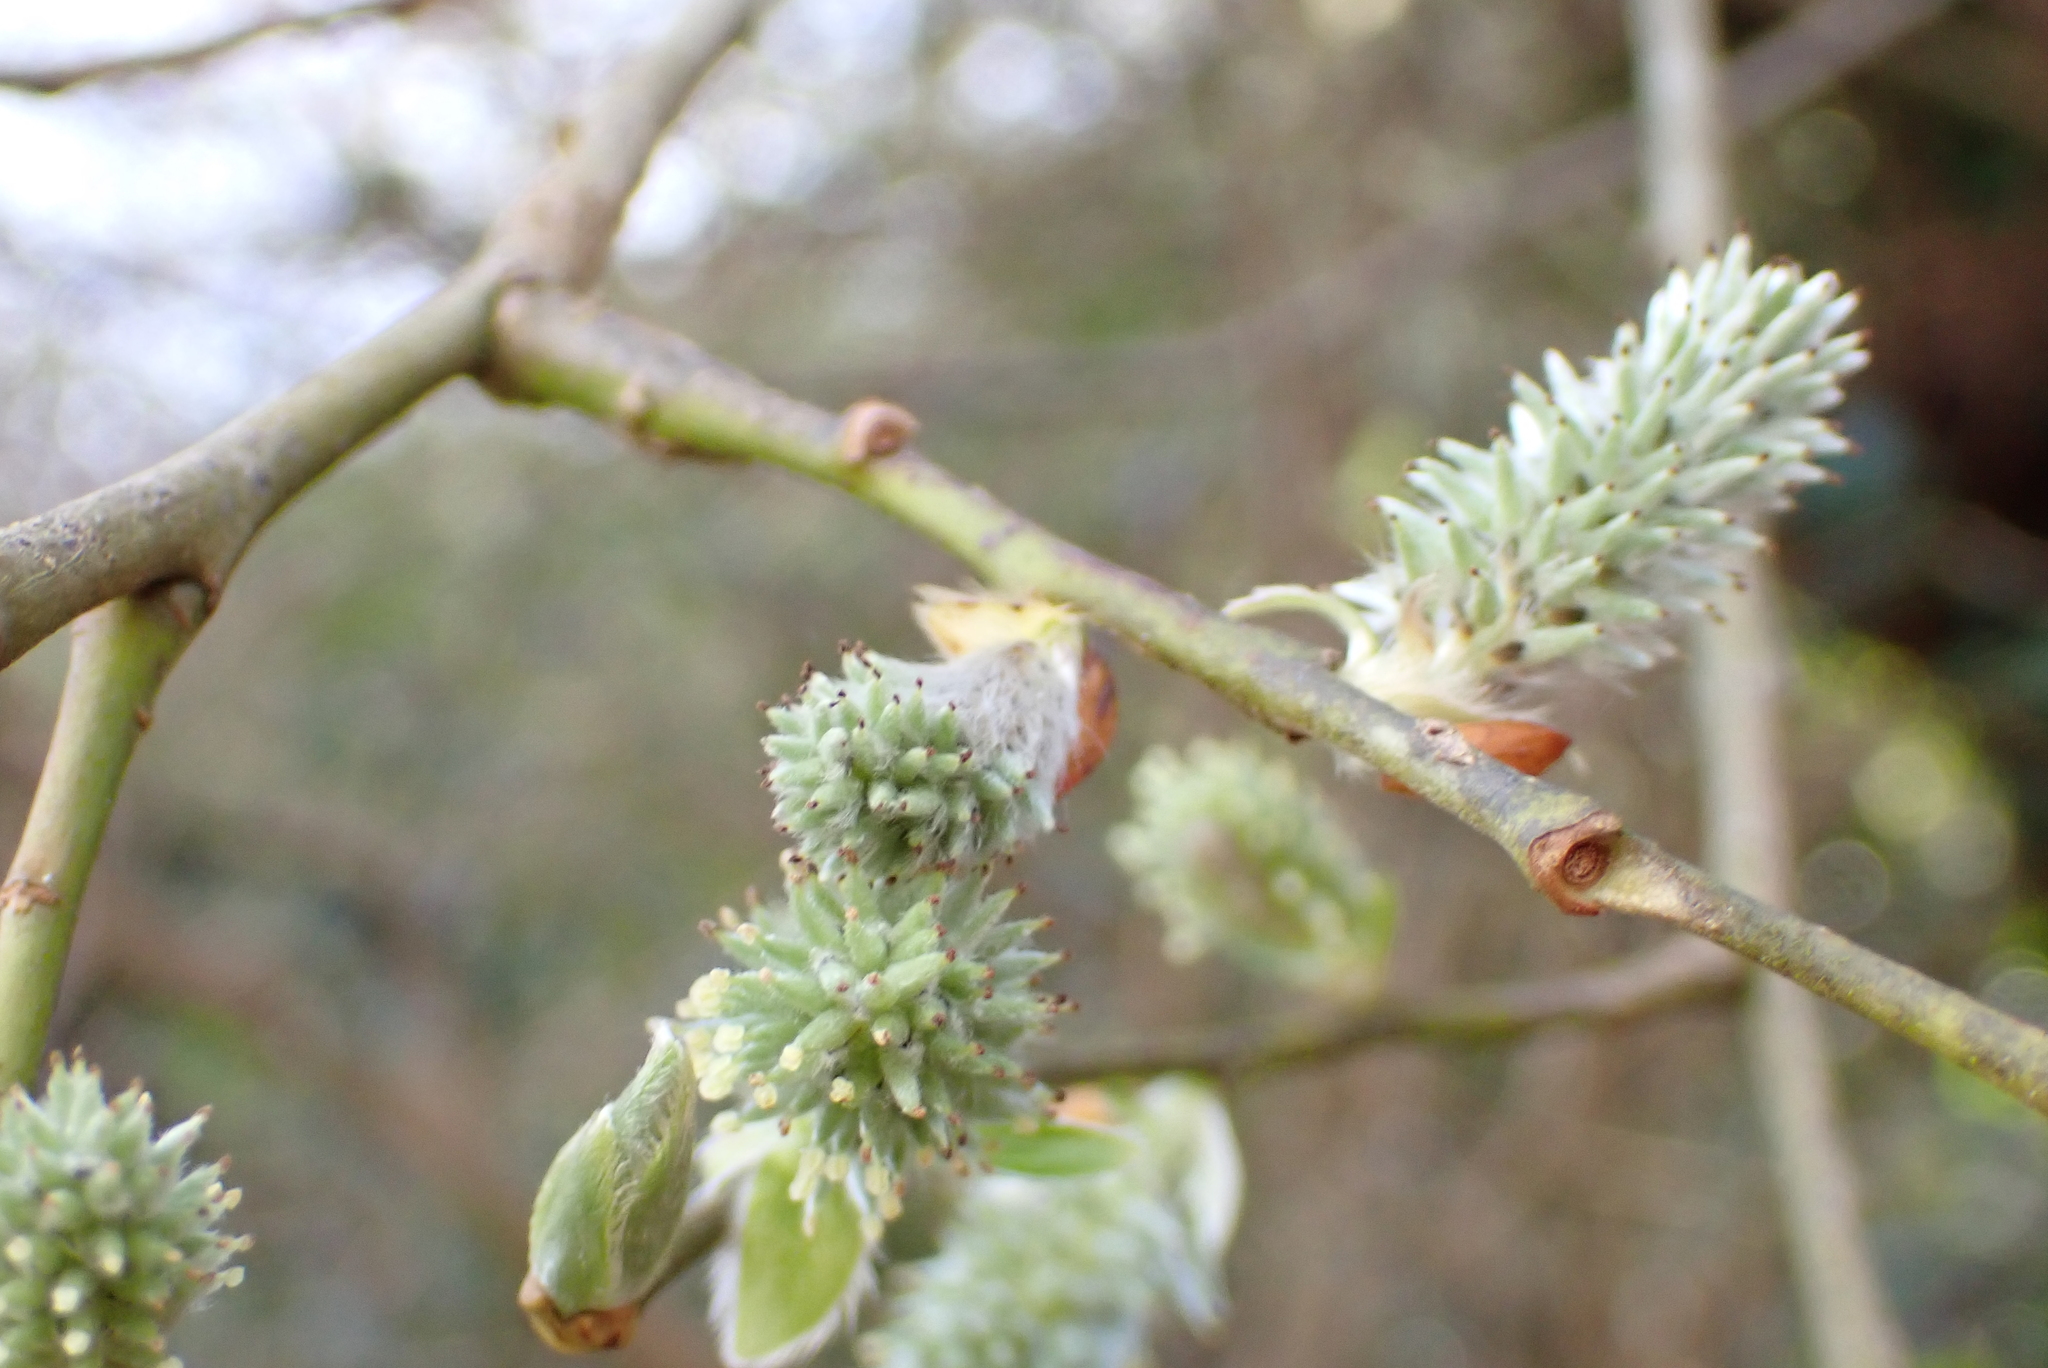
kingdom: Plantae
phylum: Tracheophyta
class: Magnoliopsida
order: Malpighiales
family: Salicaceae
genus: Salix
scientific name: Salix caprea
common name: Goat willow
